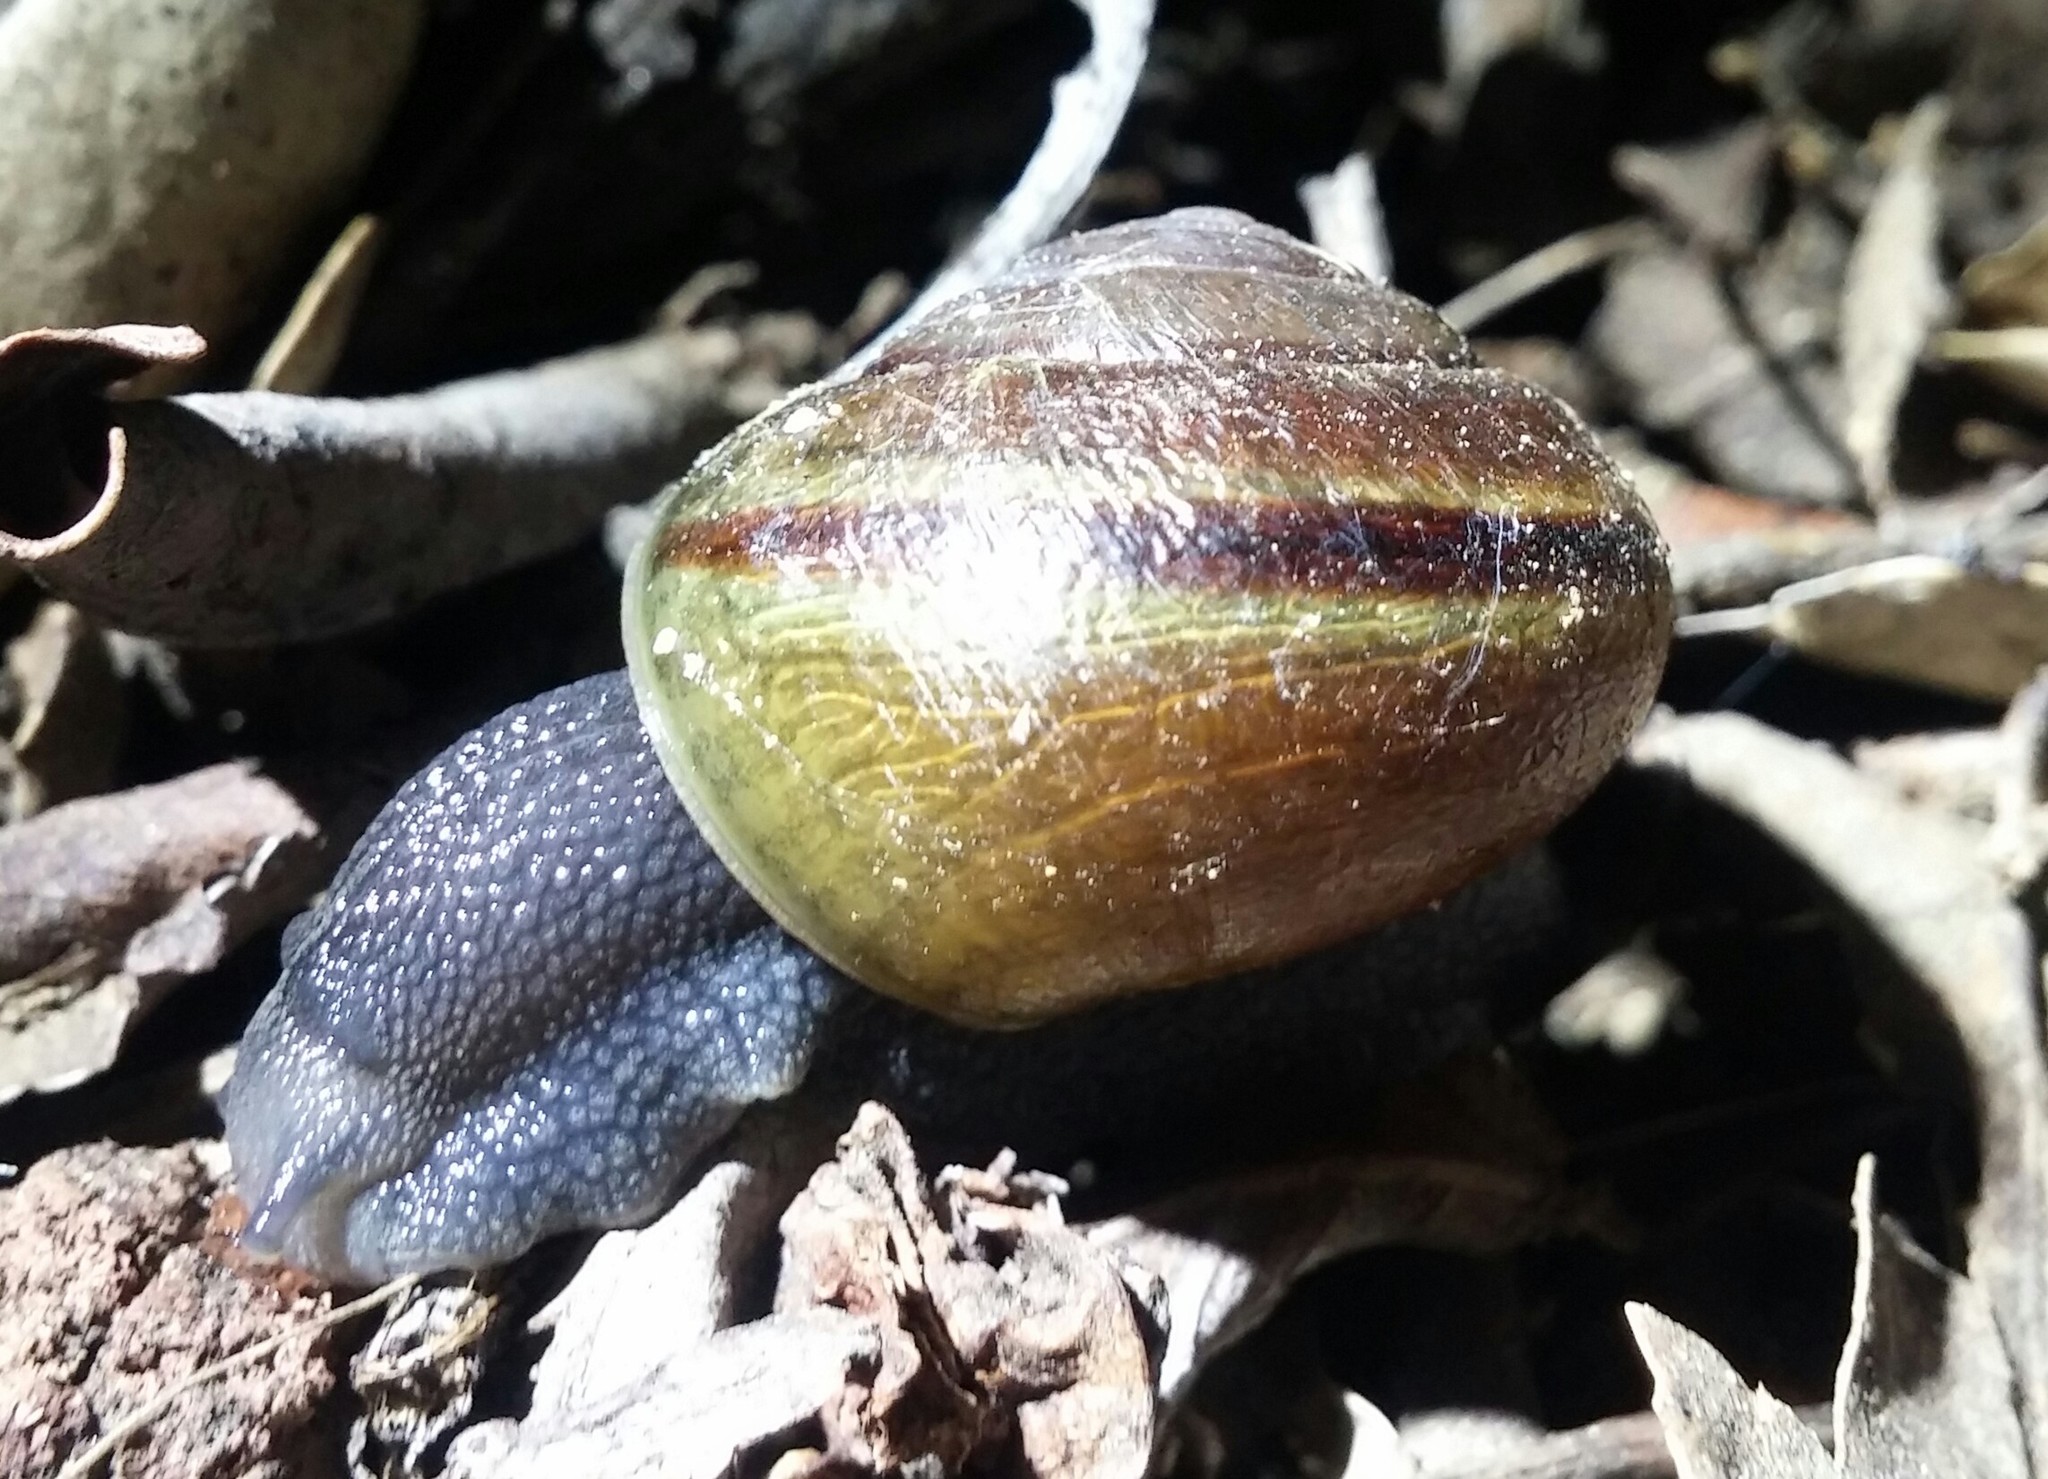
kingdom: Animalia
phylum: Mollusca
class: Gastropoda
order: Stylommatophora
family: Xanthonychidae
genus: Helminthoglypta
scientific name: Helminthoglypta tudiculata
